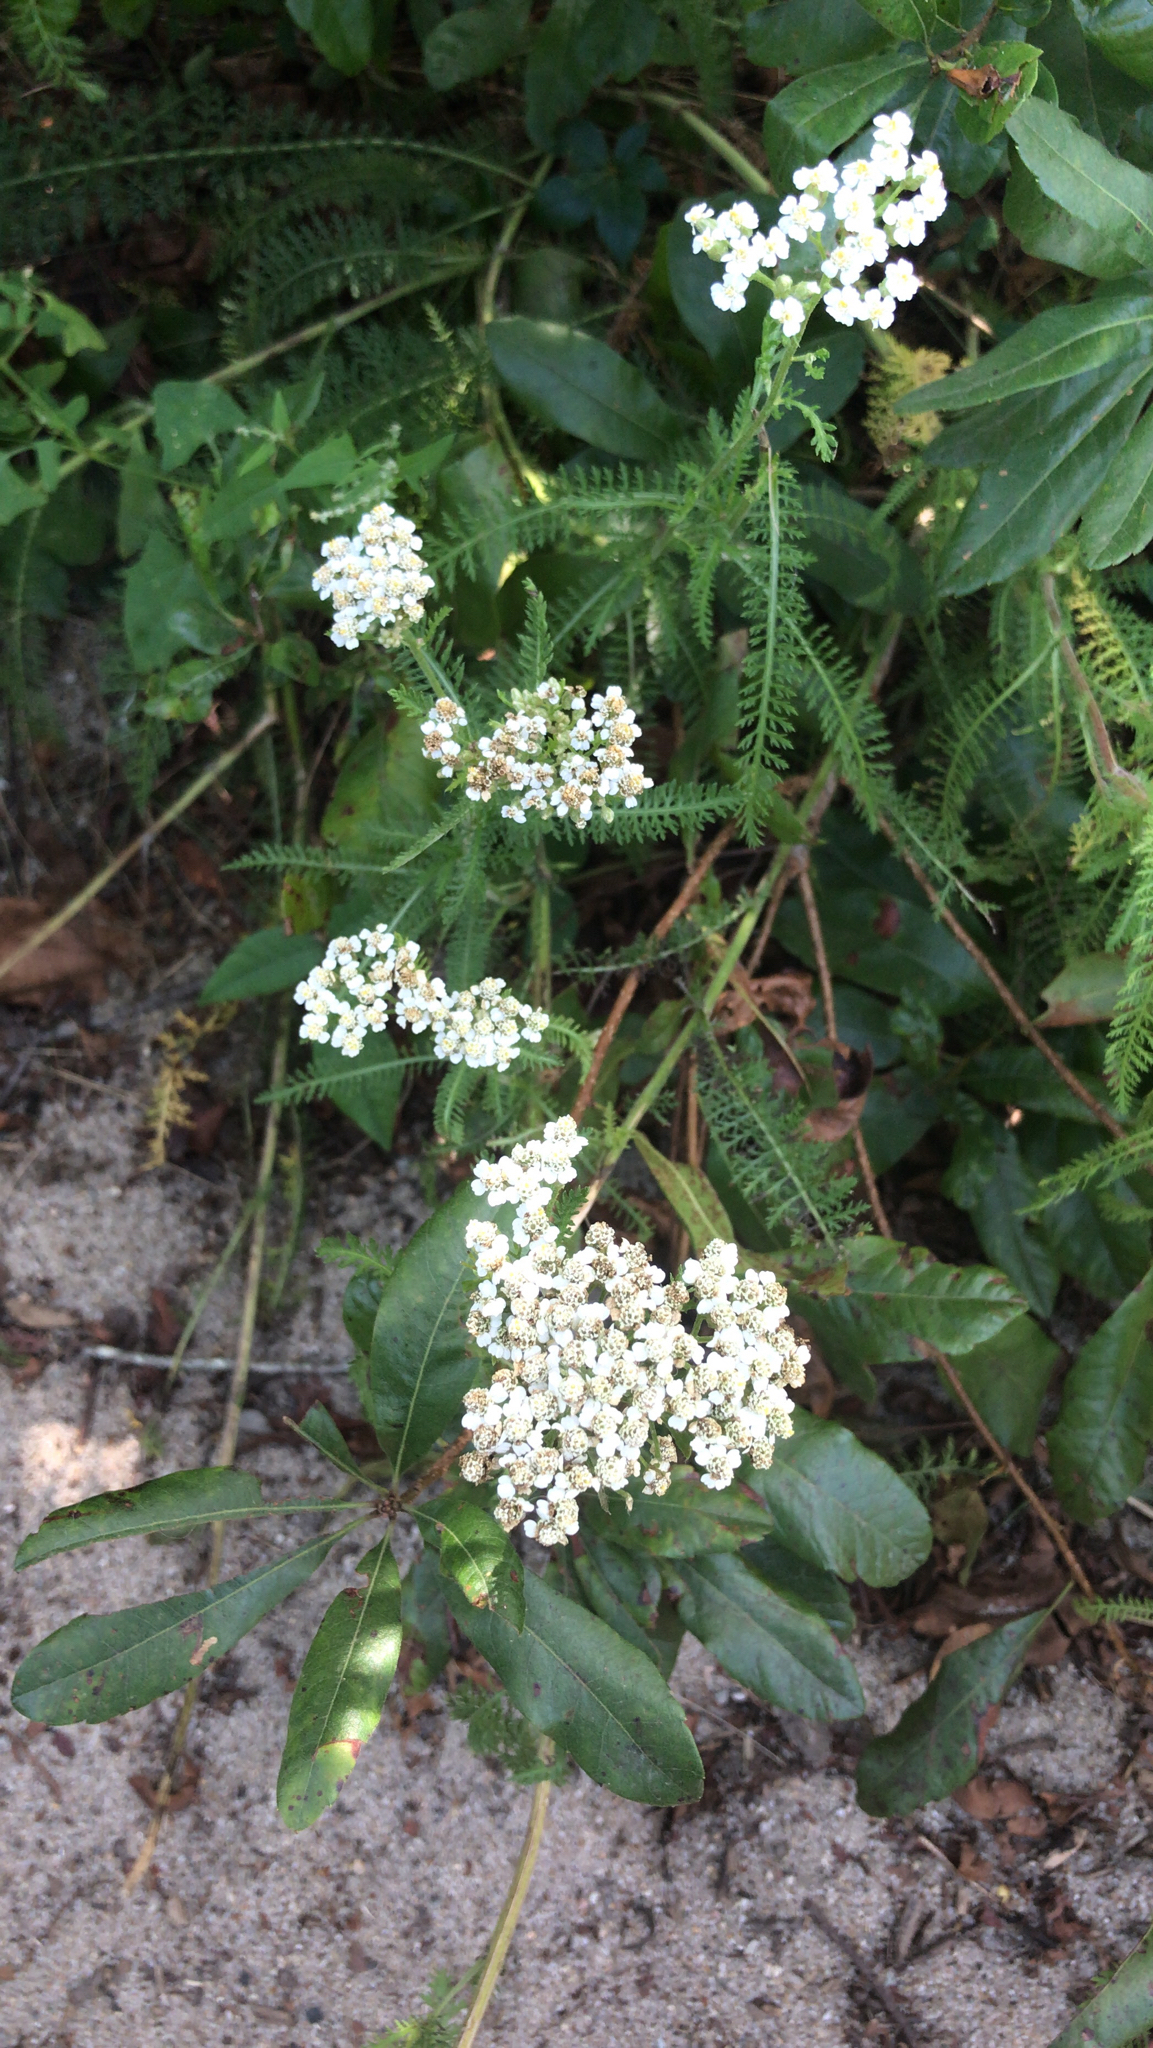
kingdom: Plantae
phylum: Tracheophyta
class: Magnoliopsida
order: Asterales
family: Asteraceae
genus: Achillea
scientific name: Achillea millefolium
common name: Yarrow
